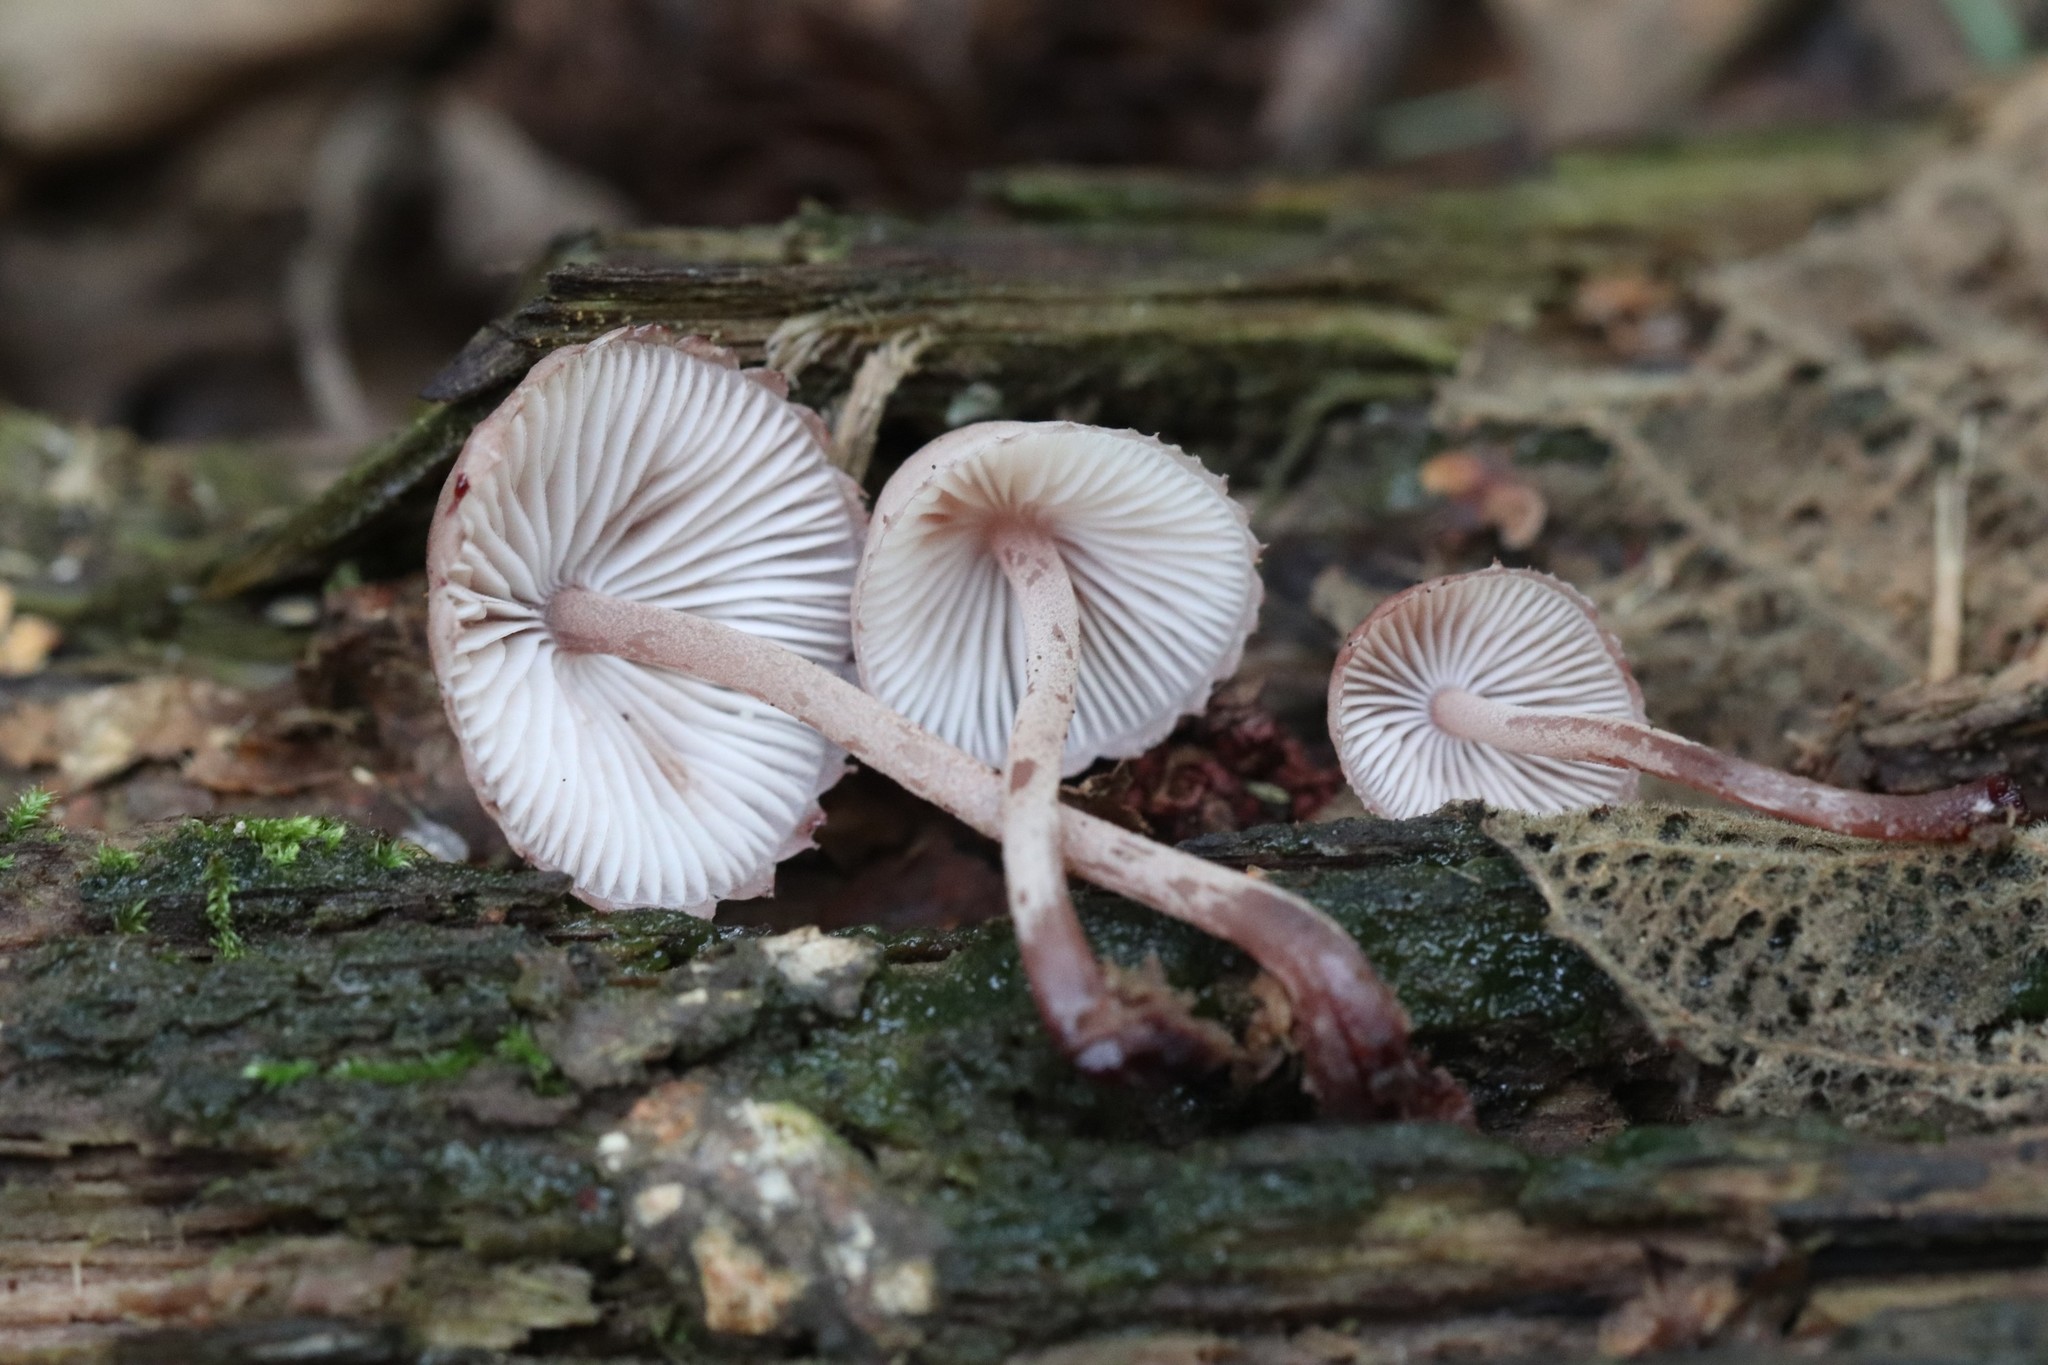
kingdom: Fungi
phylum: Basidiomycota
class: Agaricomycetes
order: Agaricales
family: Mycenaceae
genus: Mycena
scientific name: Mycena haematopus
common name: Burgundydrop bonnet
